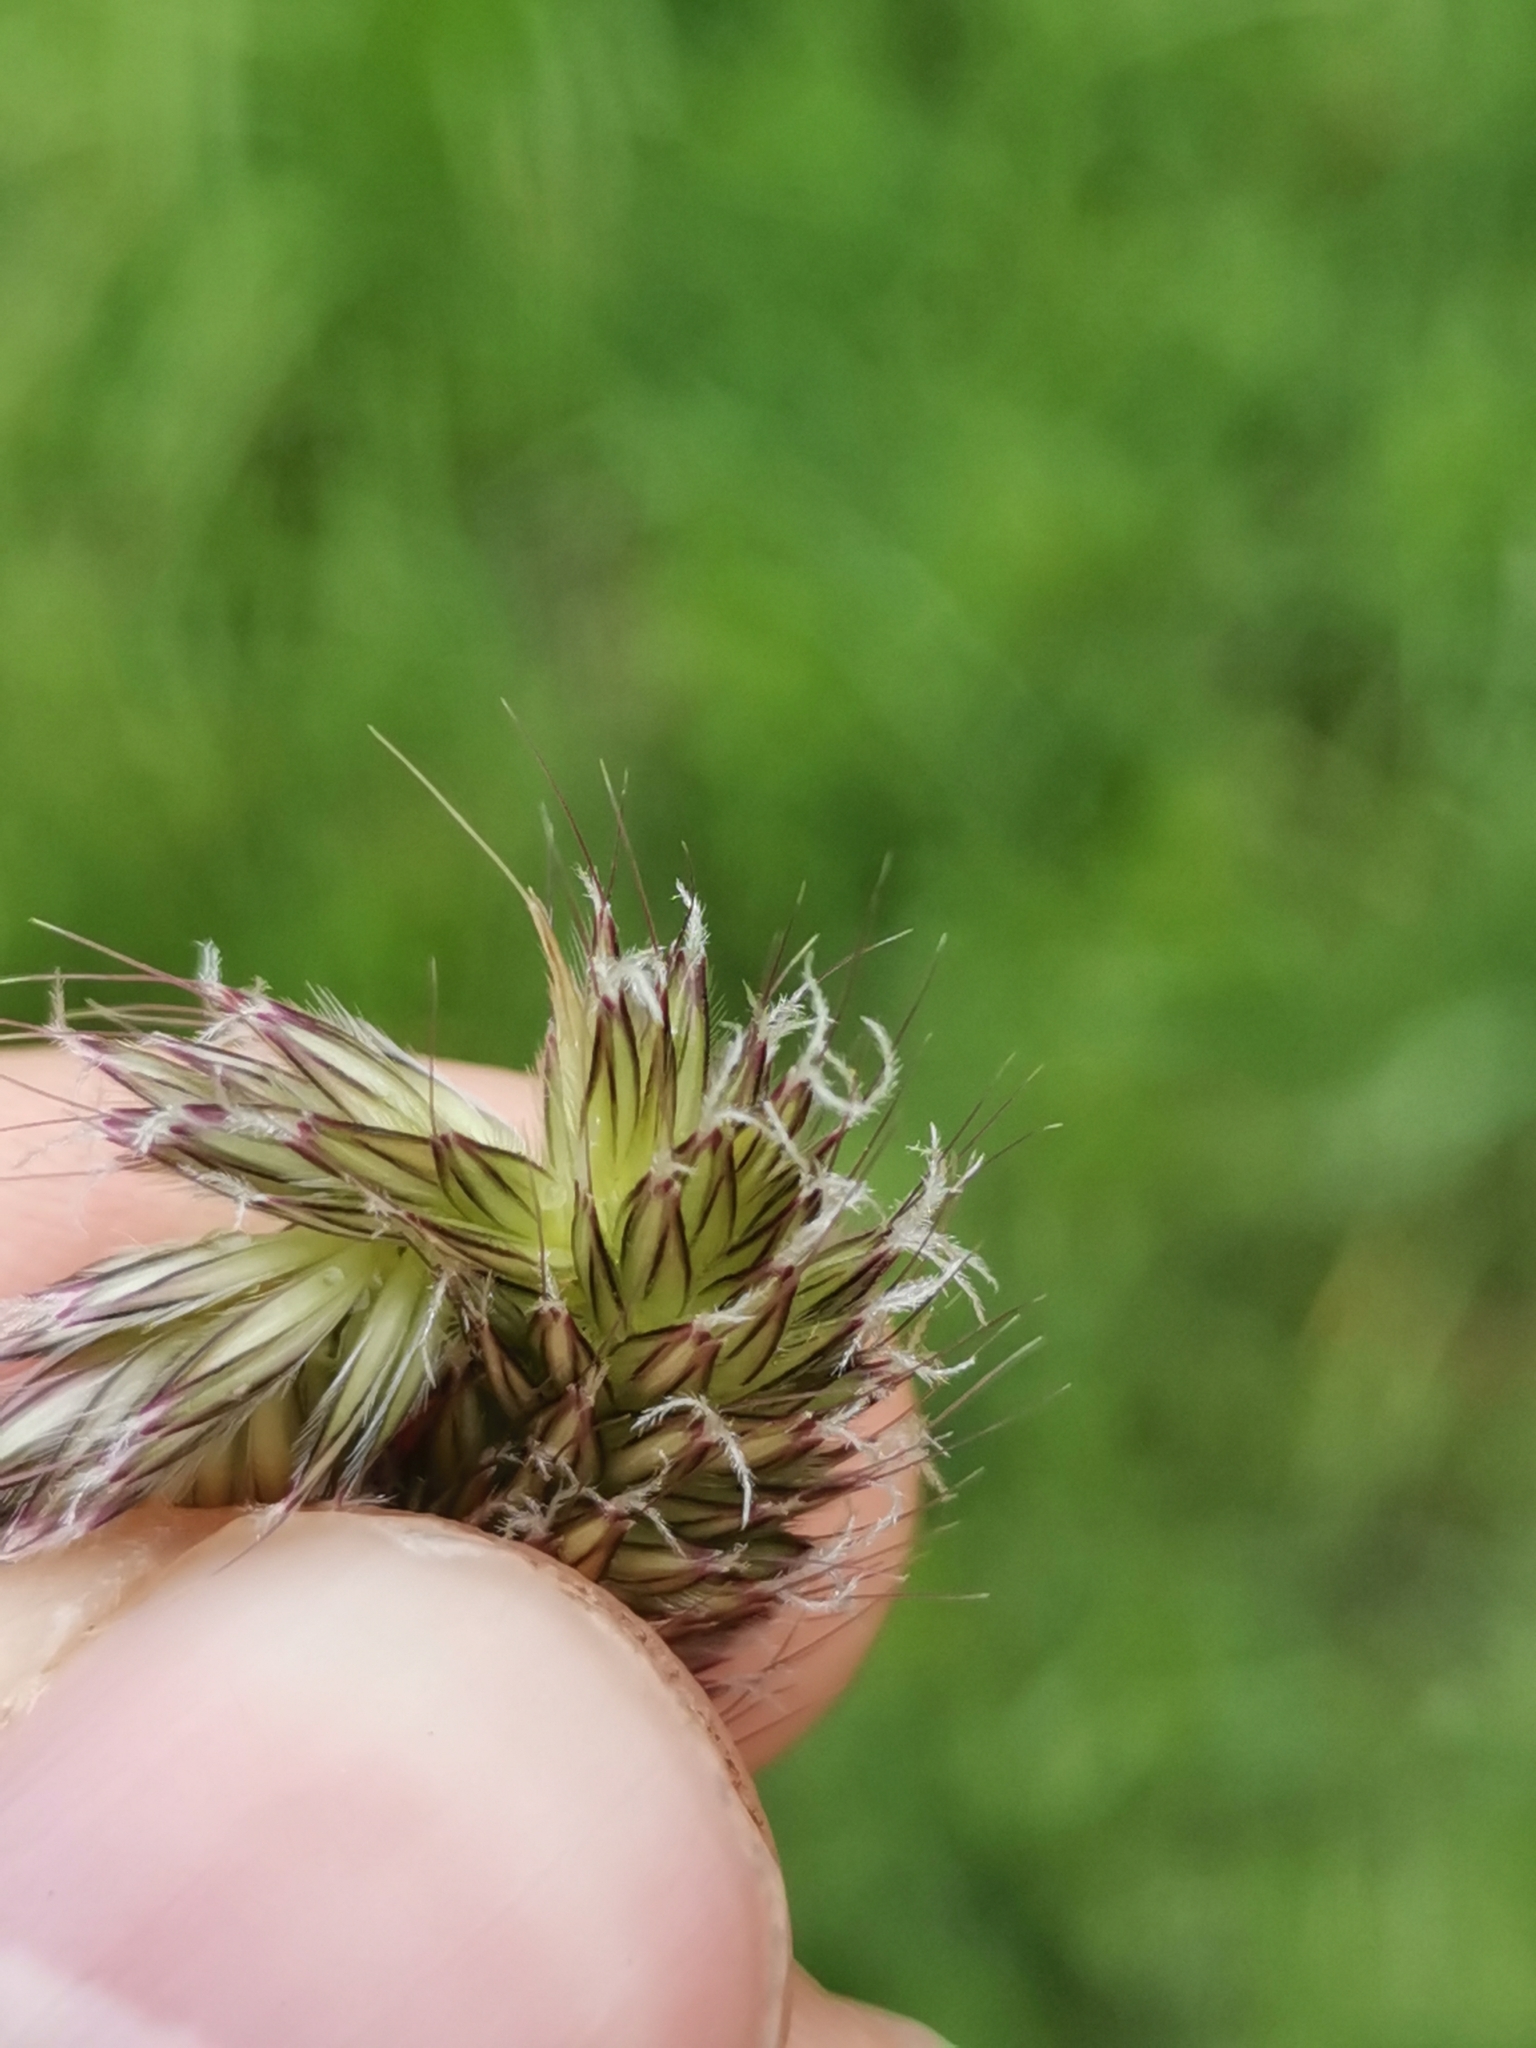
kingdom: Plantae
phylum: Tracheophyta
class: Liliopsida
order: Poales
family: Poaceae
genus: Alopecurus
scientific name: Alopecurus pratensis
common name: Meadow foxtail
